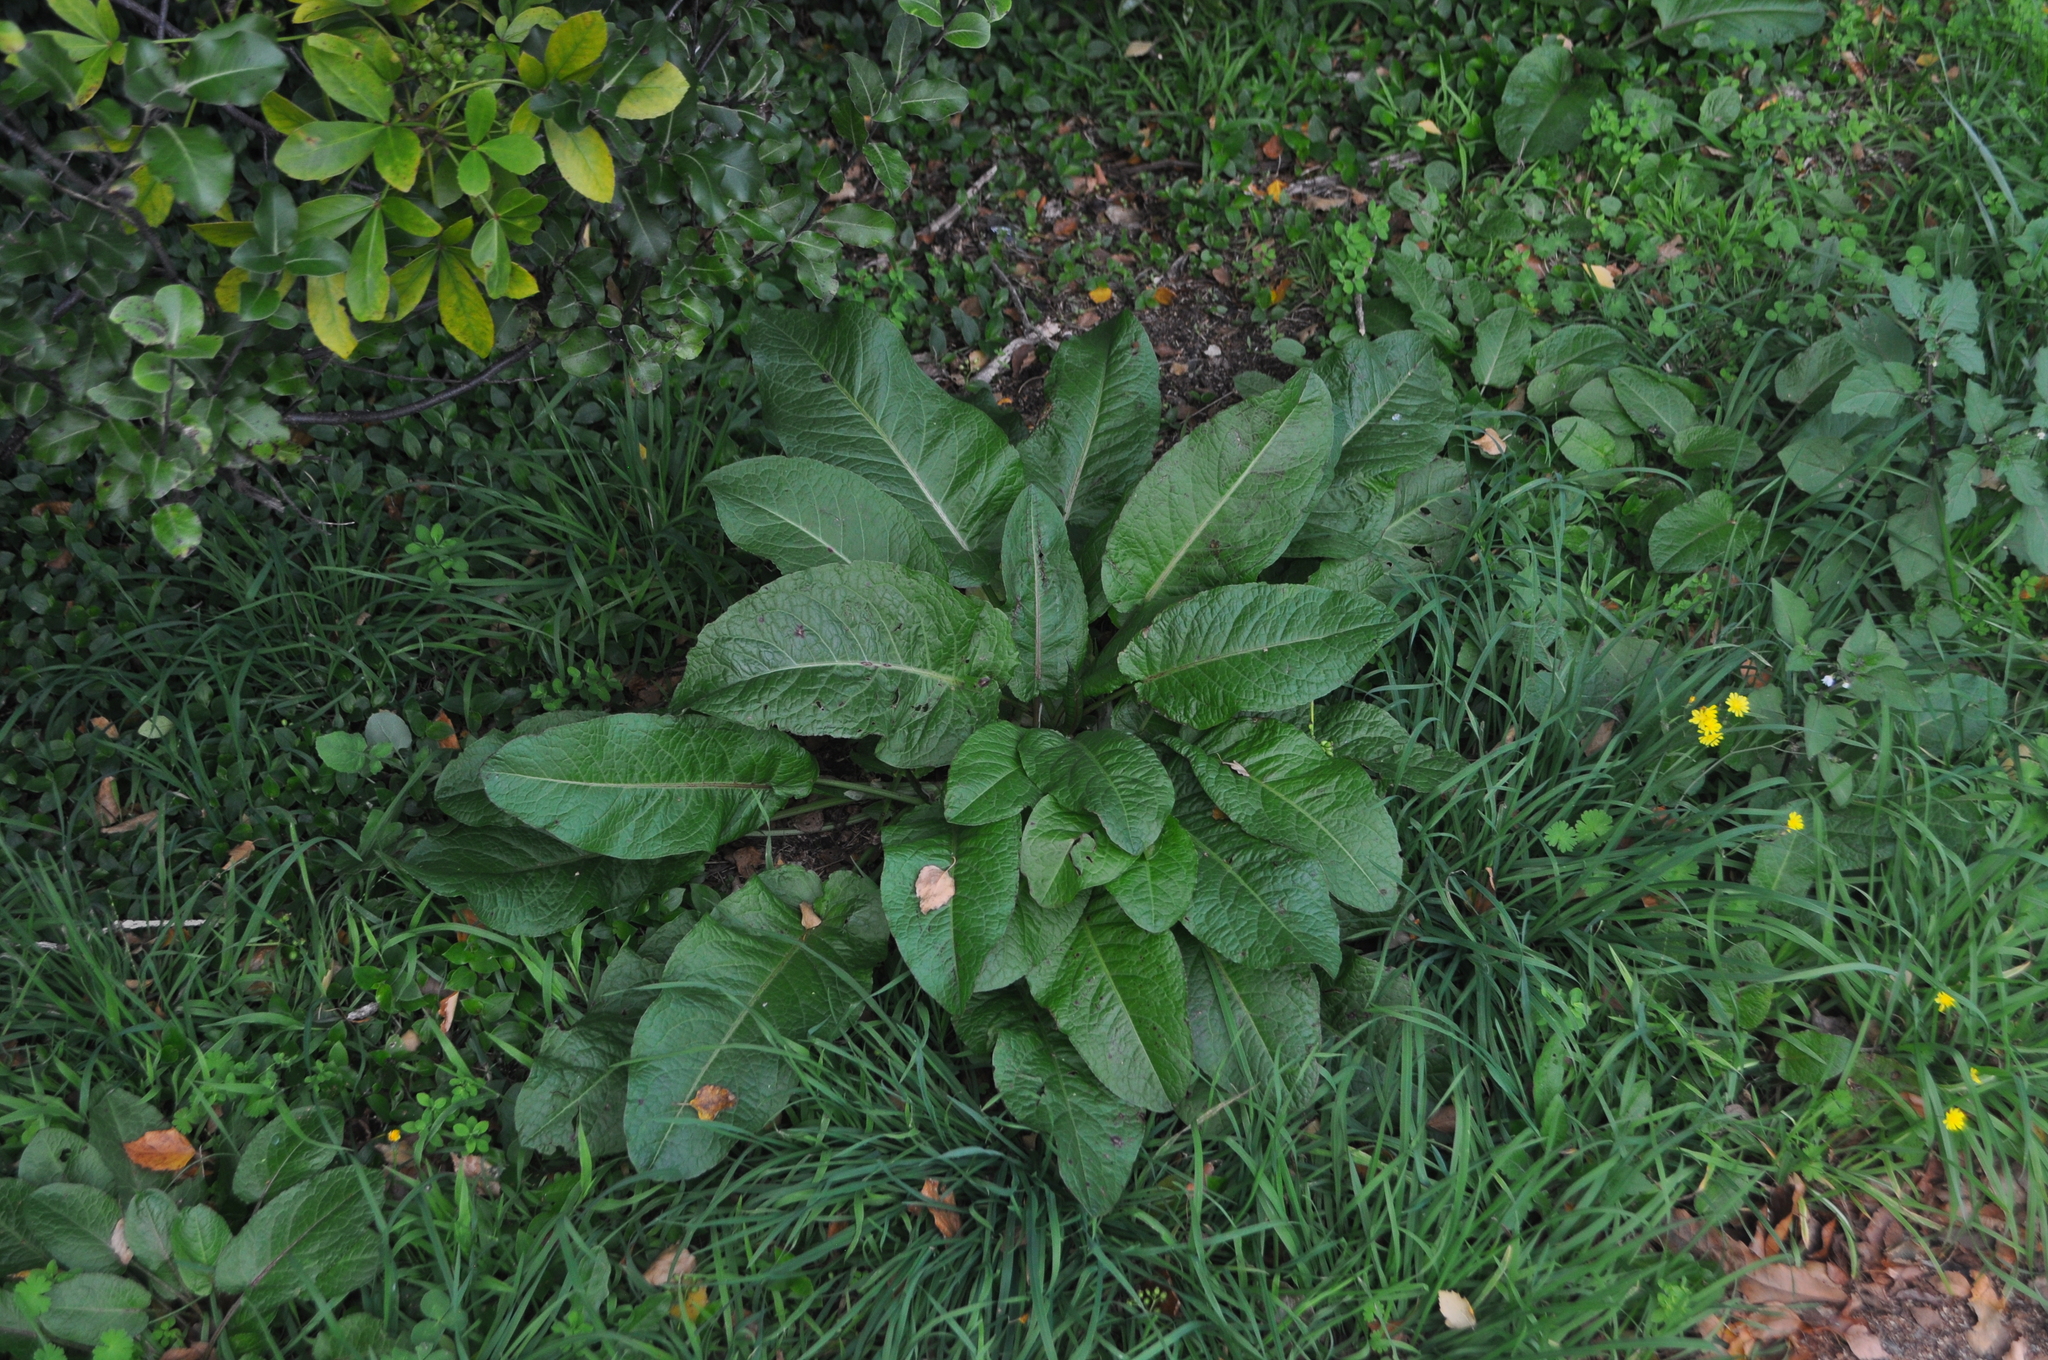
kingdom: Plantae
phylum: Tracheophyta
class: Magnoliopsida
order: Caryophyllales
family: Polygonaceae
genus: Rumex
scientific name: Rumex obtusifolius
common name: Bitter dock
